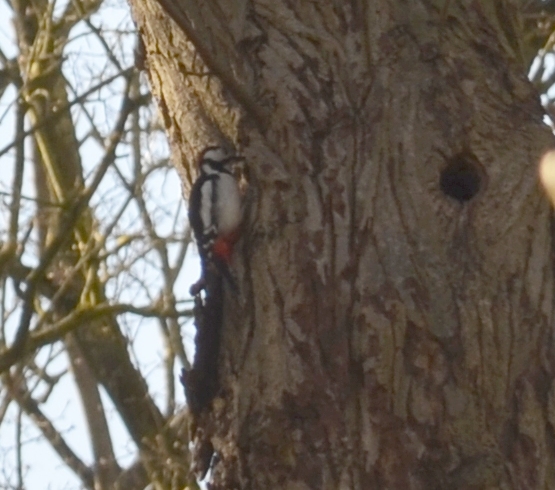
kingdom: Animalia
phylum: Chordata
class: Aves
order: Piciformes
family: Picidae
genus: Dendrocopos
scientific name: Dendrocopos major
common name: Great spotted woodpecker
